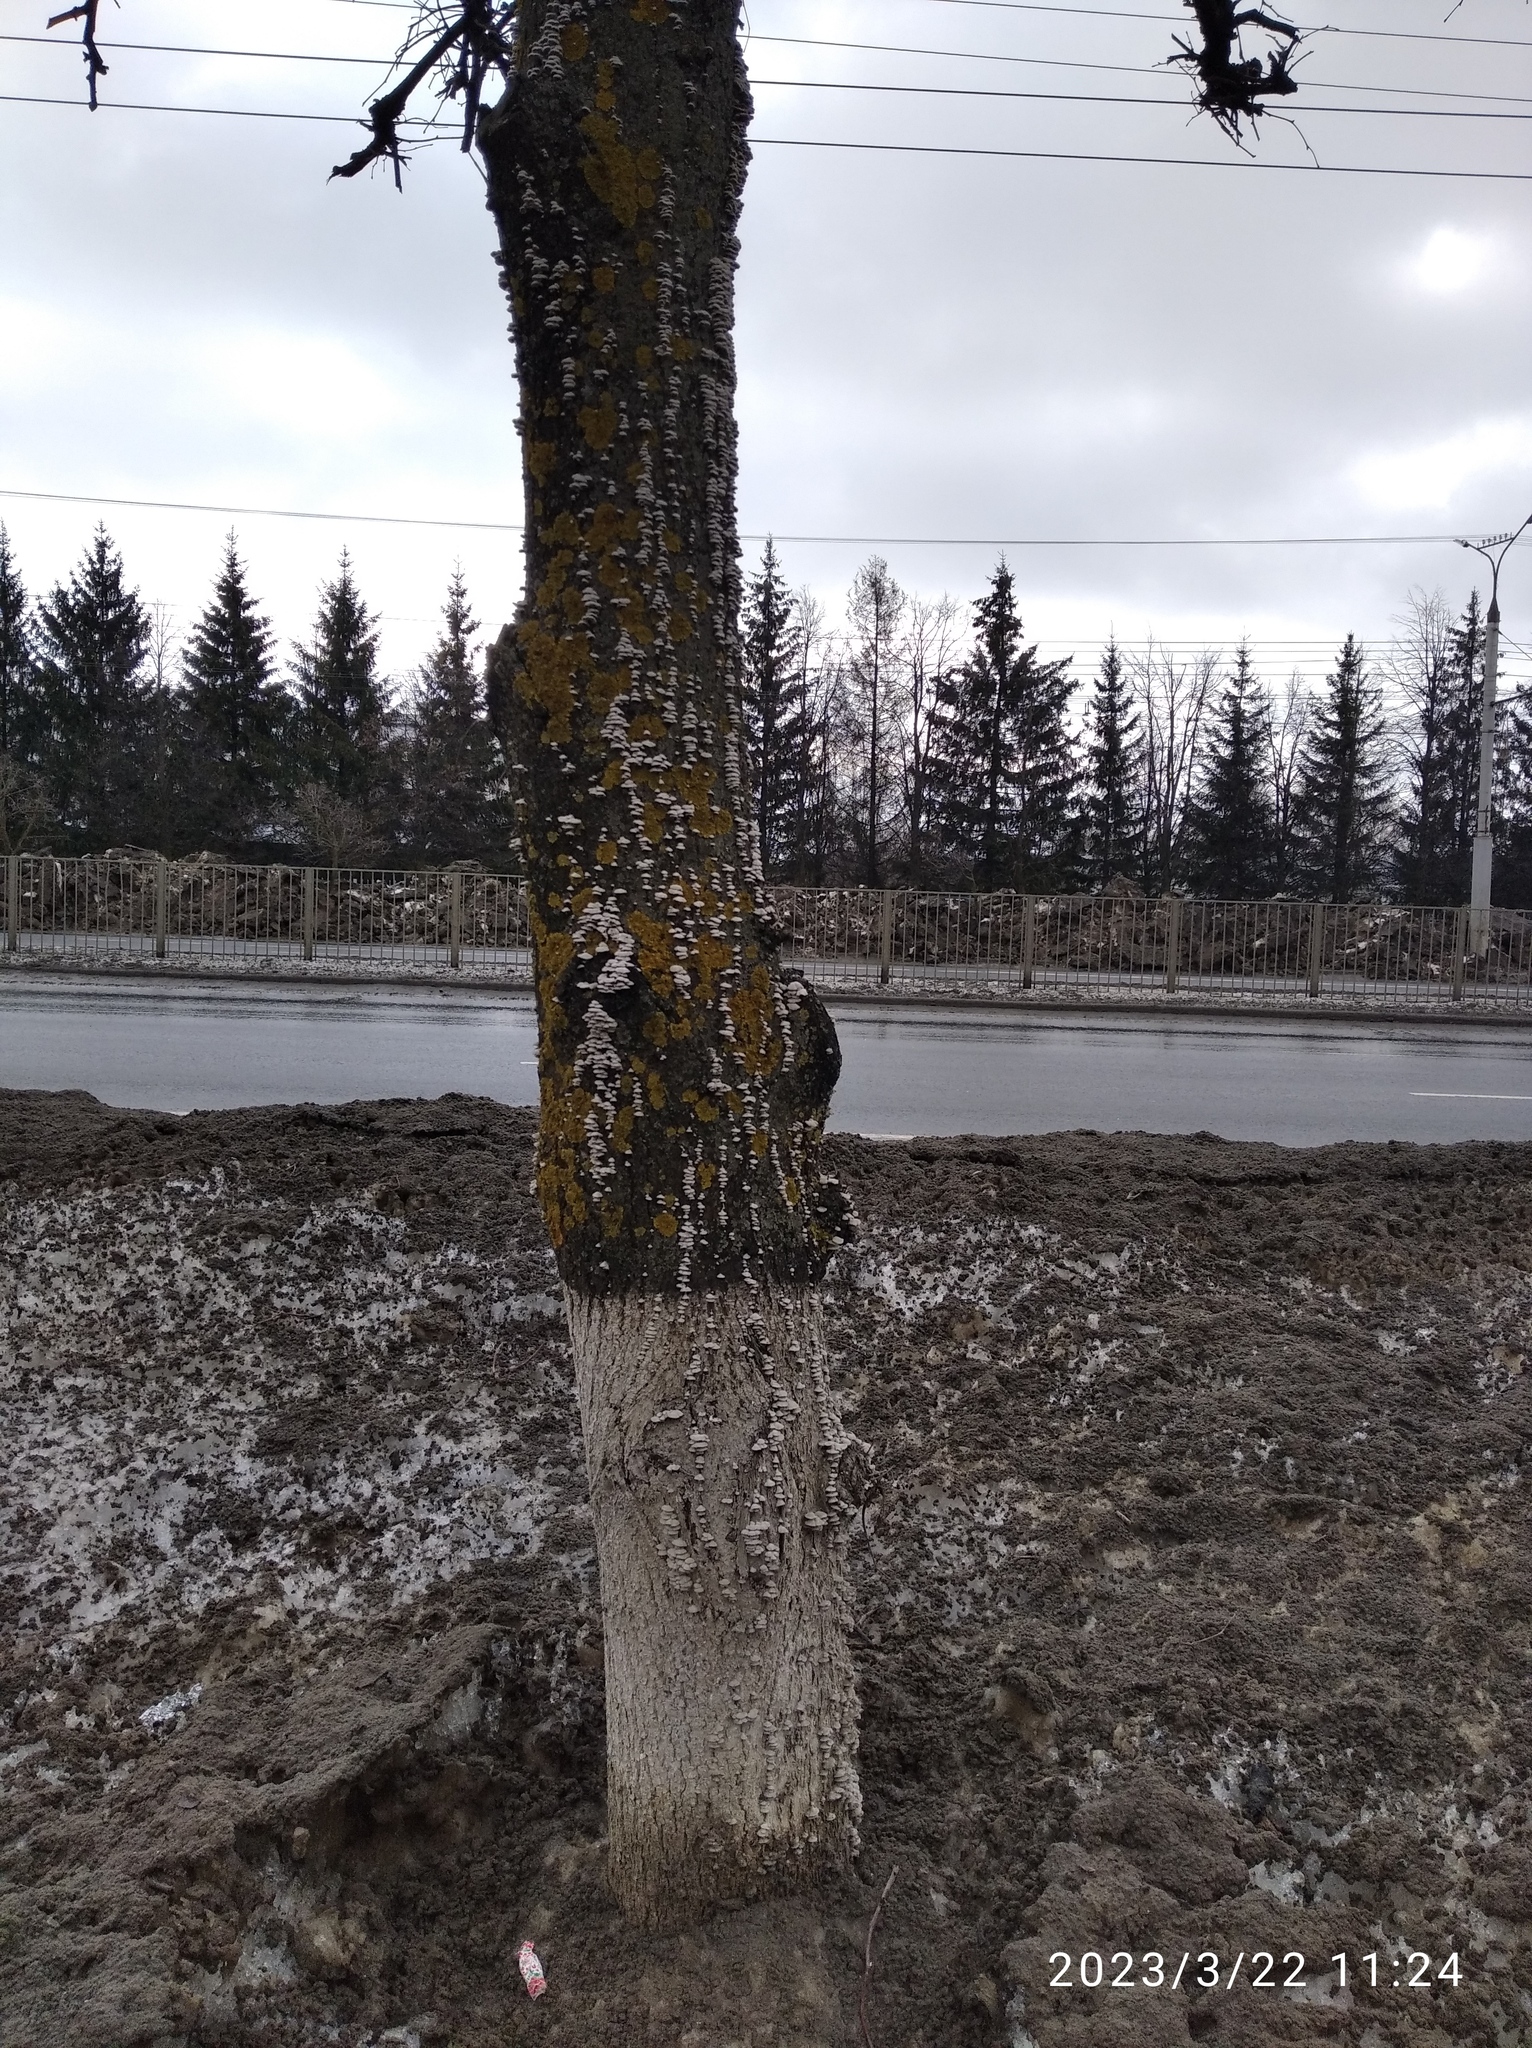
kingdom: Fungi
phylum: Basidiomycota
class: Agaricomycetes
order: Agaricales
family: Schizophyllaceae
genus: Schizophyllum
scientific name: Schizophyllum commune
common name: Common porecrust
